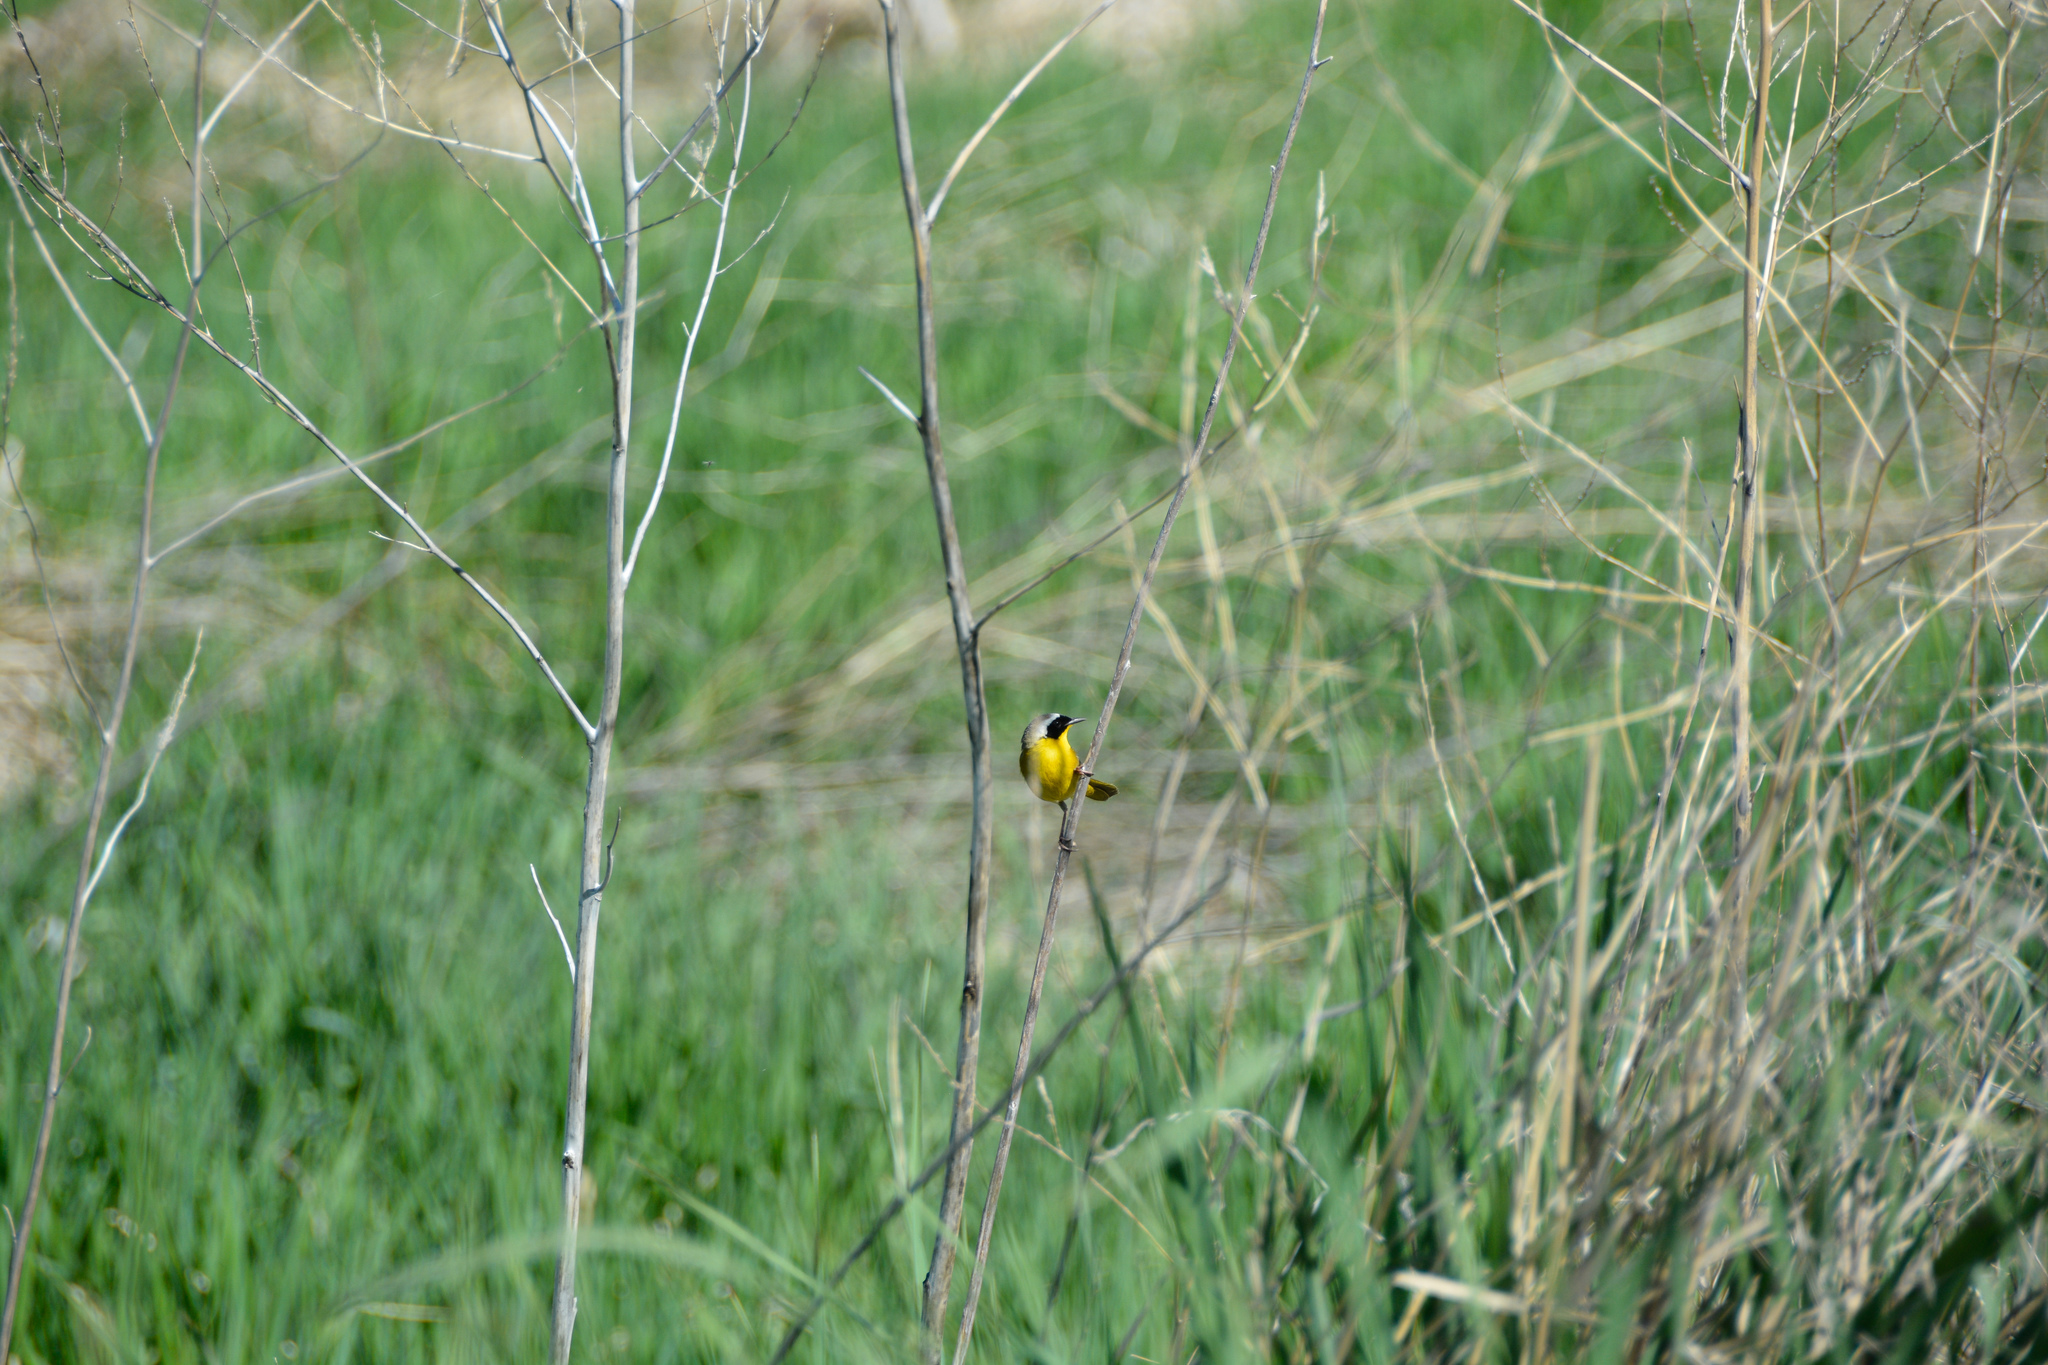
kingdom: Animalia
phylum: Chordata
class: Aves
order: Passeriformes
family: Parulidae
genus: Geothlypis
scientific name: Geothlypis trichas
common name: Common yellowthroat
